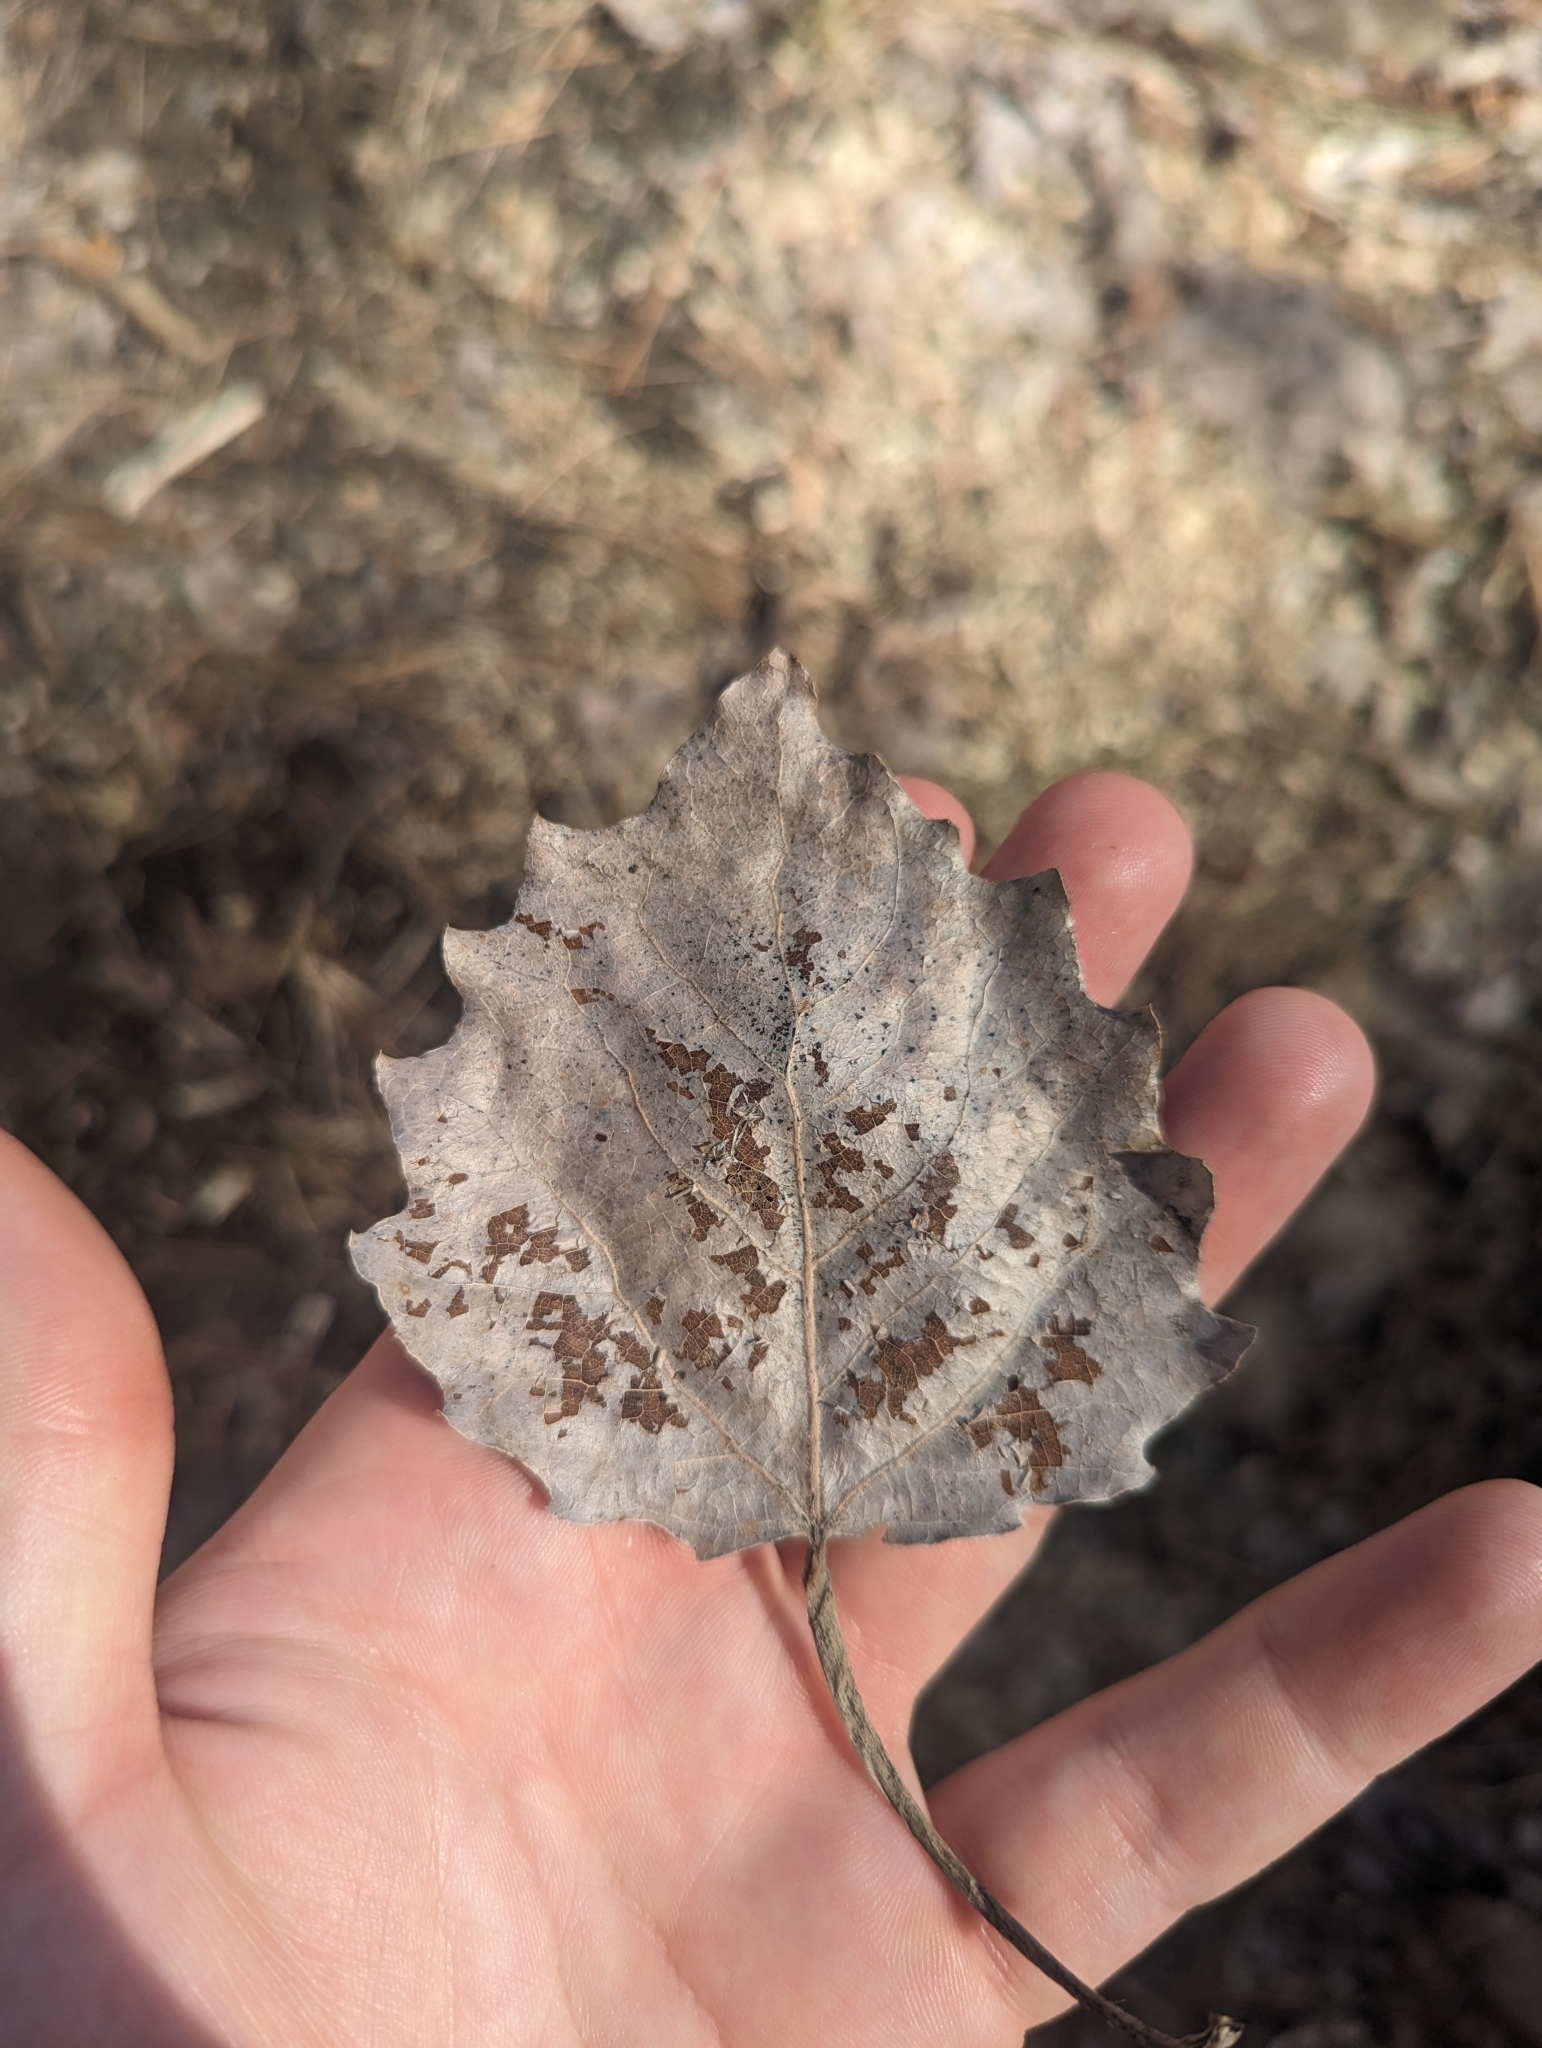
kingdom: Plantae
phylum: Tracheophyta
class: Magnoliopsida
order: Malpighiales
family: Salicaceae
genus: Populus
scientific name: Populus grandidentata
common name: Bigtooth aspen
